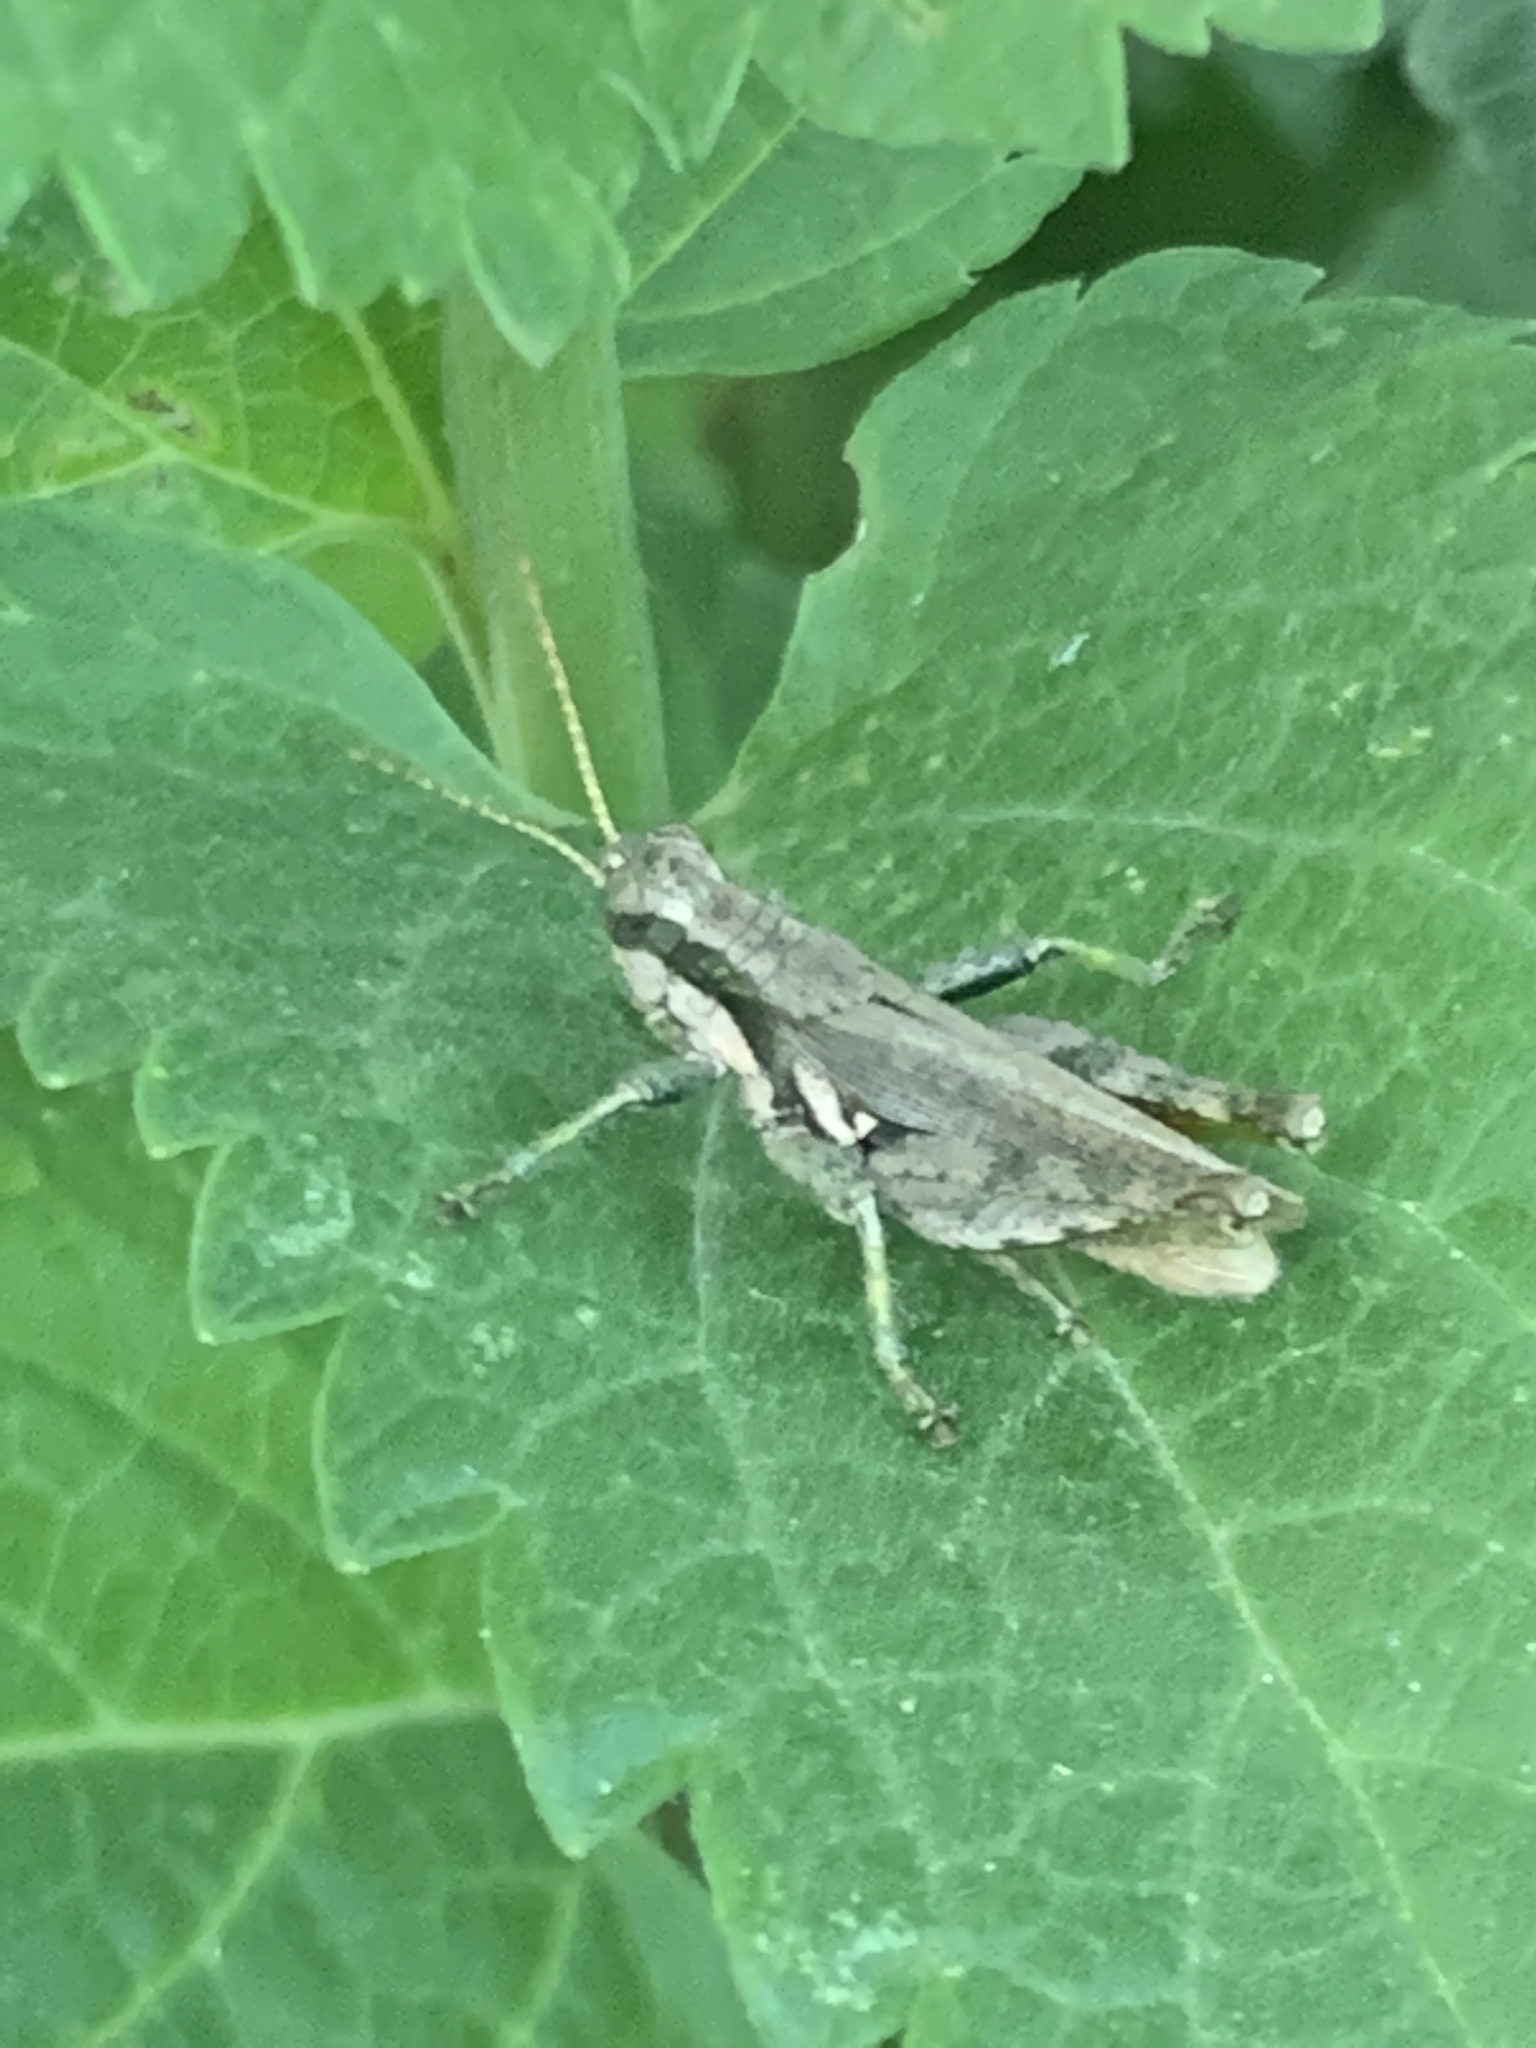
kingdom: Animalia
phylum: Arthropoda
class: Insecta
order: Orthoptera
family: Acrididae
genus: Ronderosia
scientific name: Ronderosia bergii
